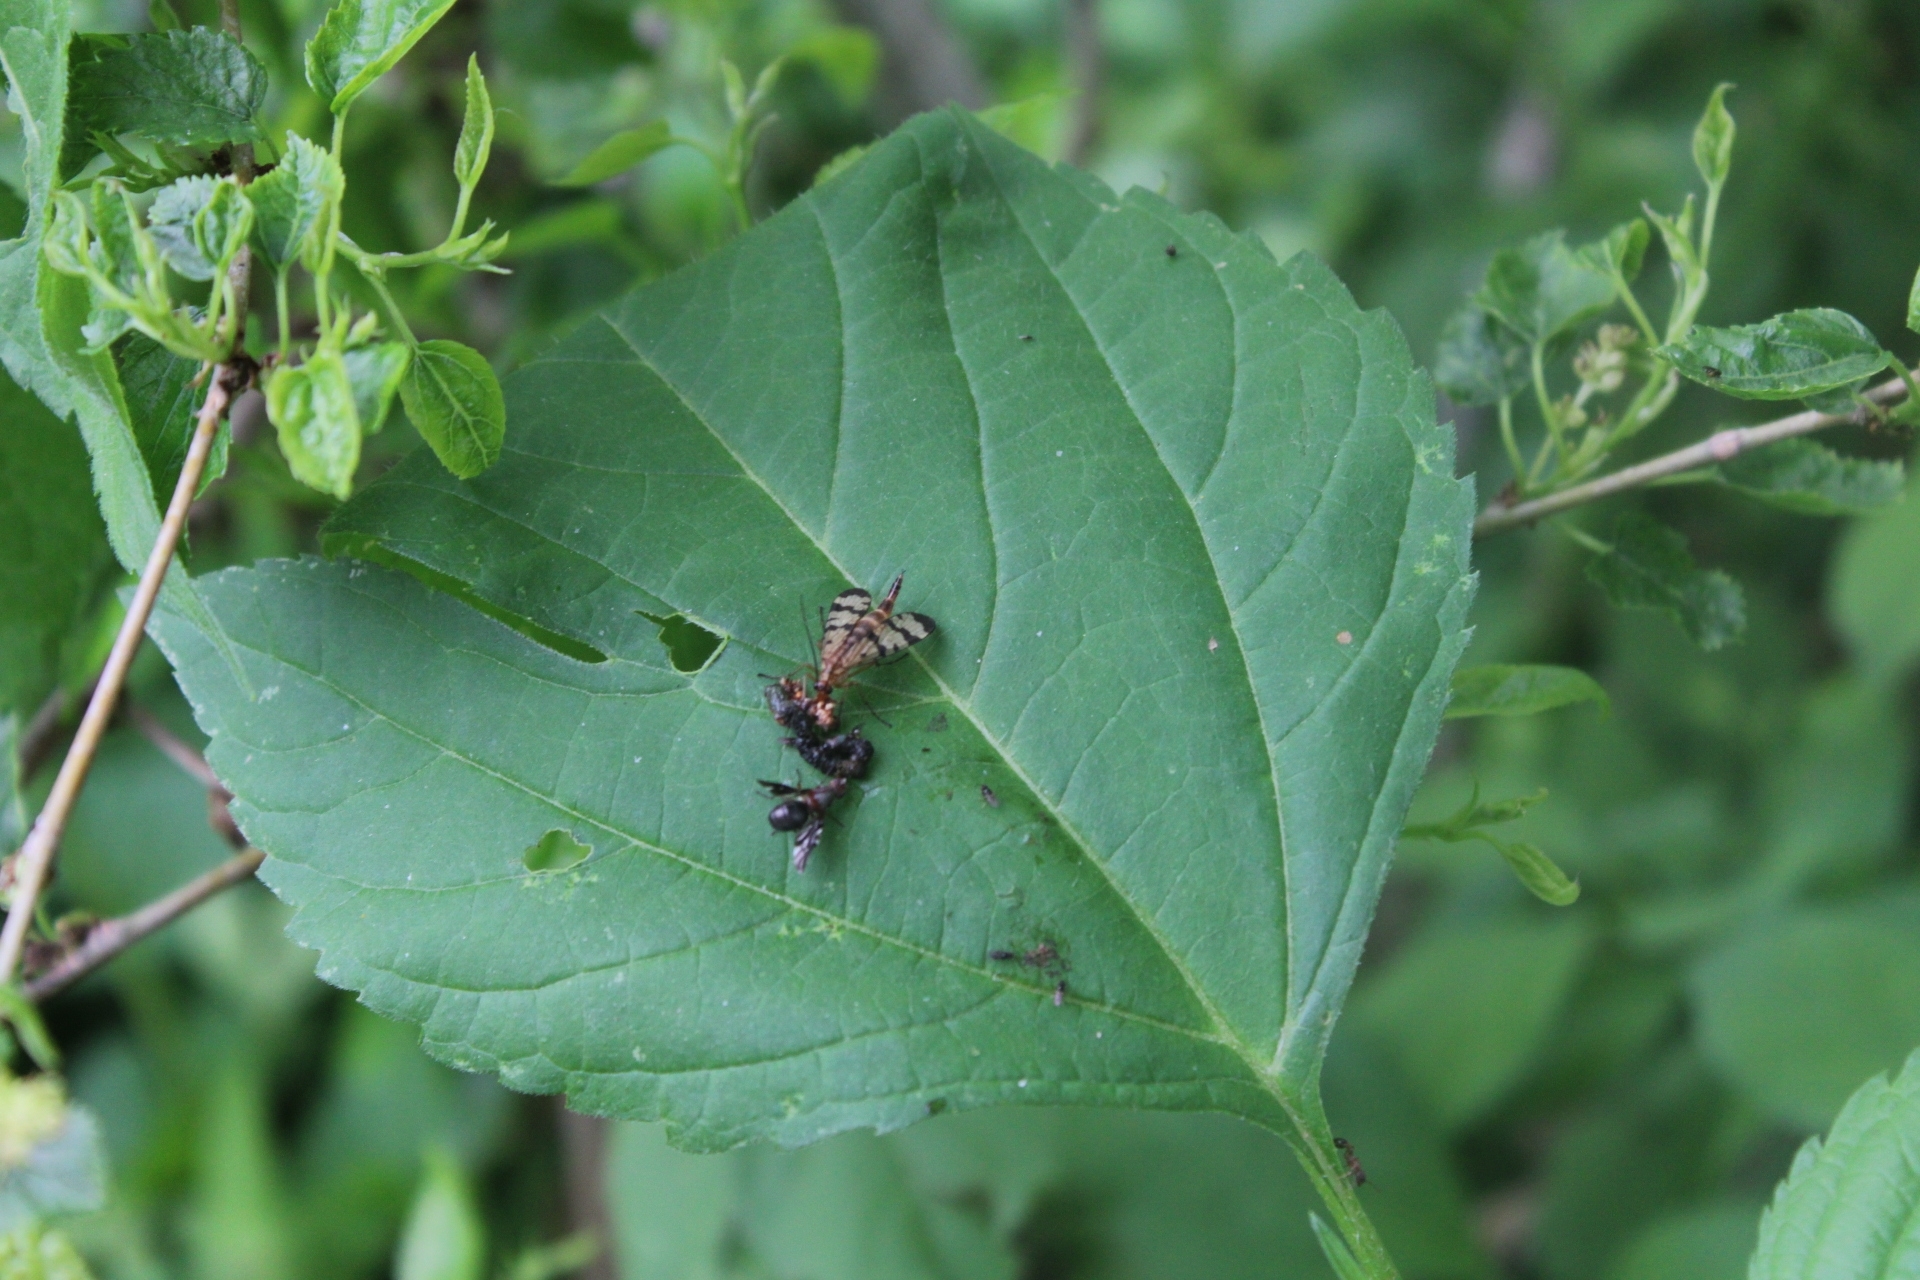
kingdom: Animalia
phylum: Arthropoda
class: Insecta
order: Diptera
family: Ulidiidae
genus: Delphinia
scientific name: Delphinia picta
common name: Common picture-winged fly
